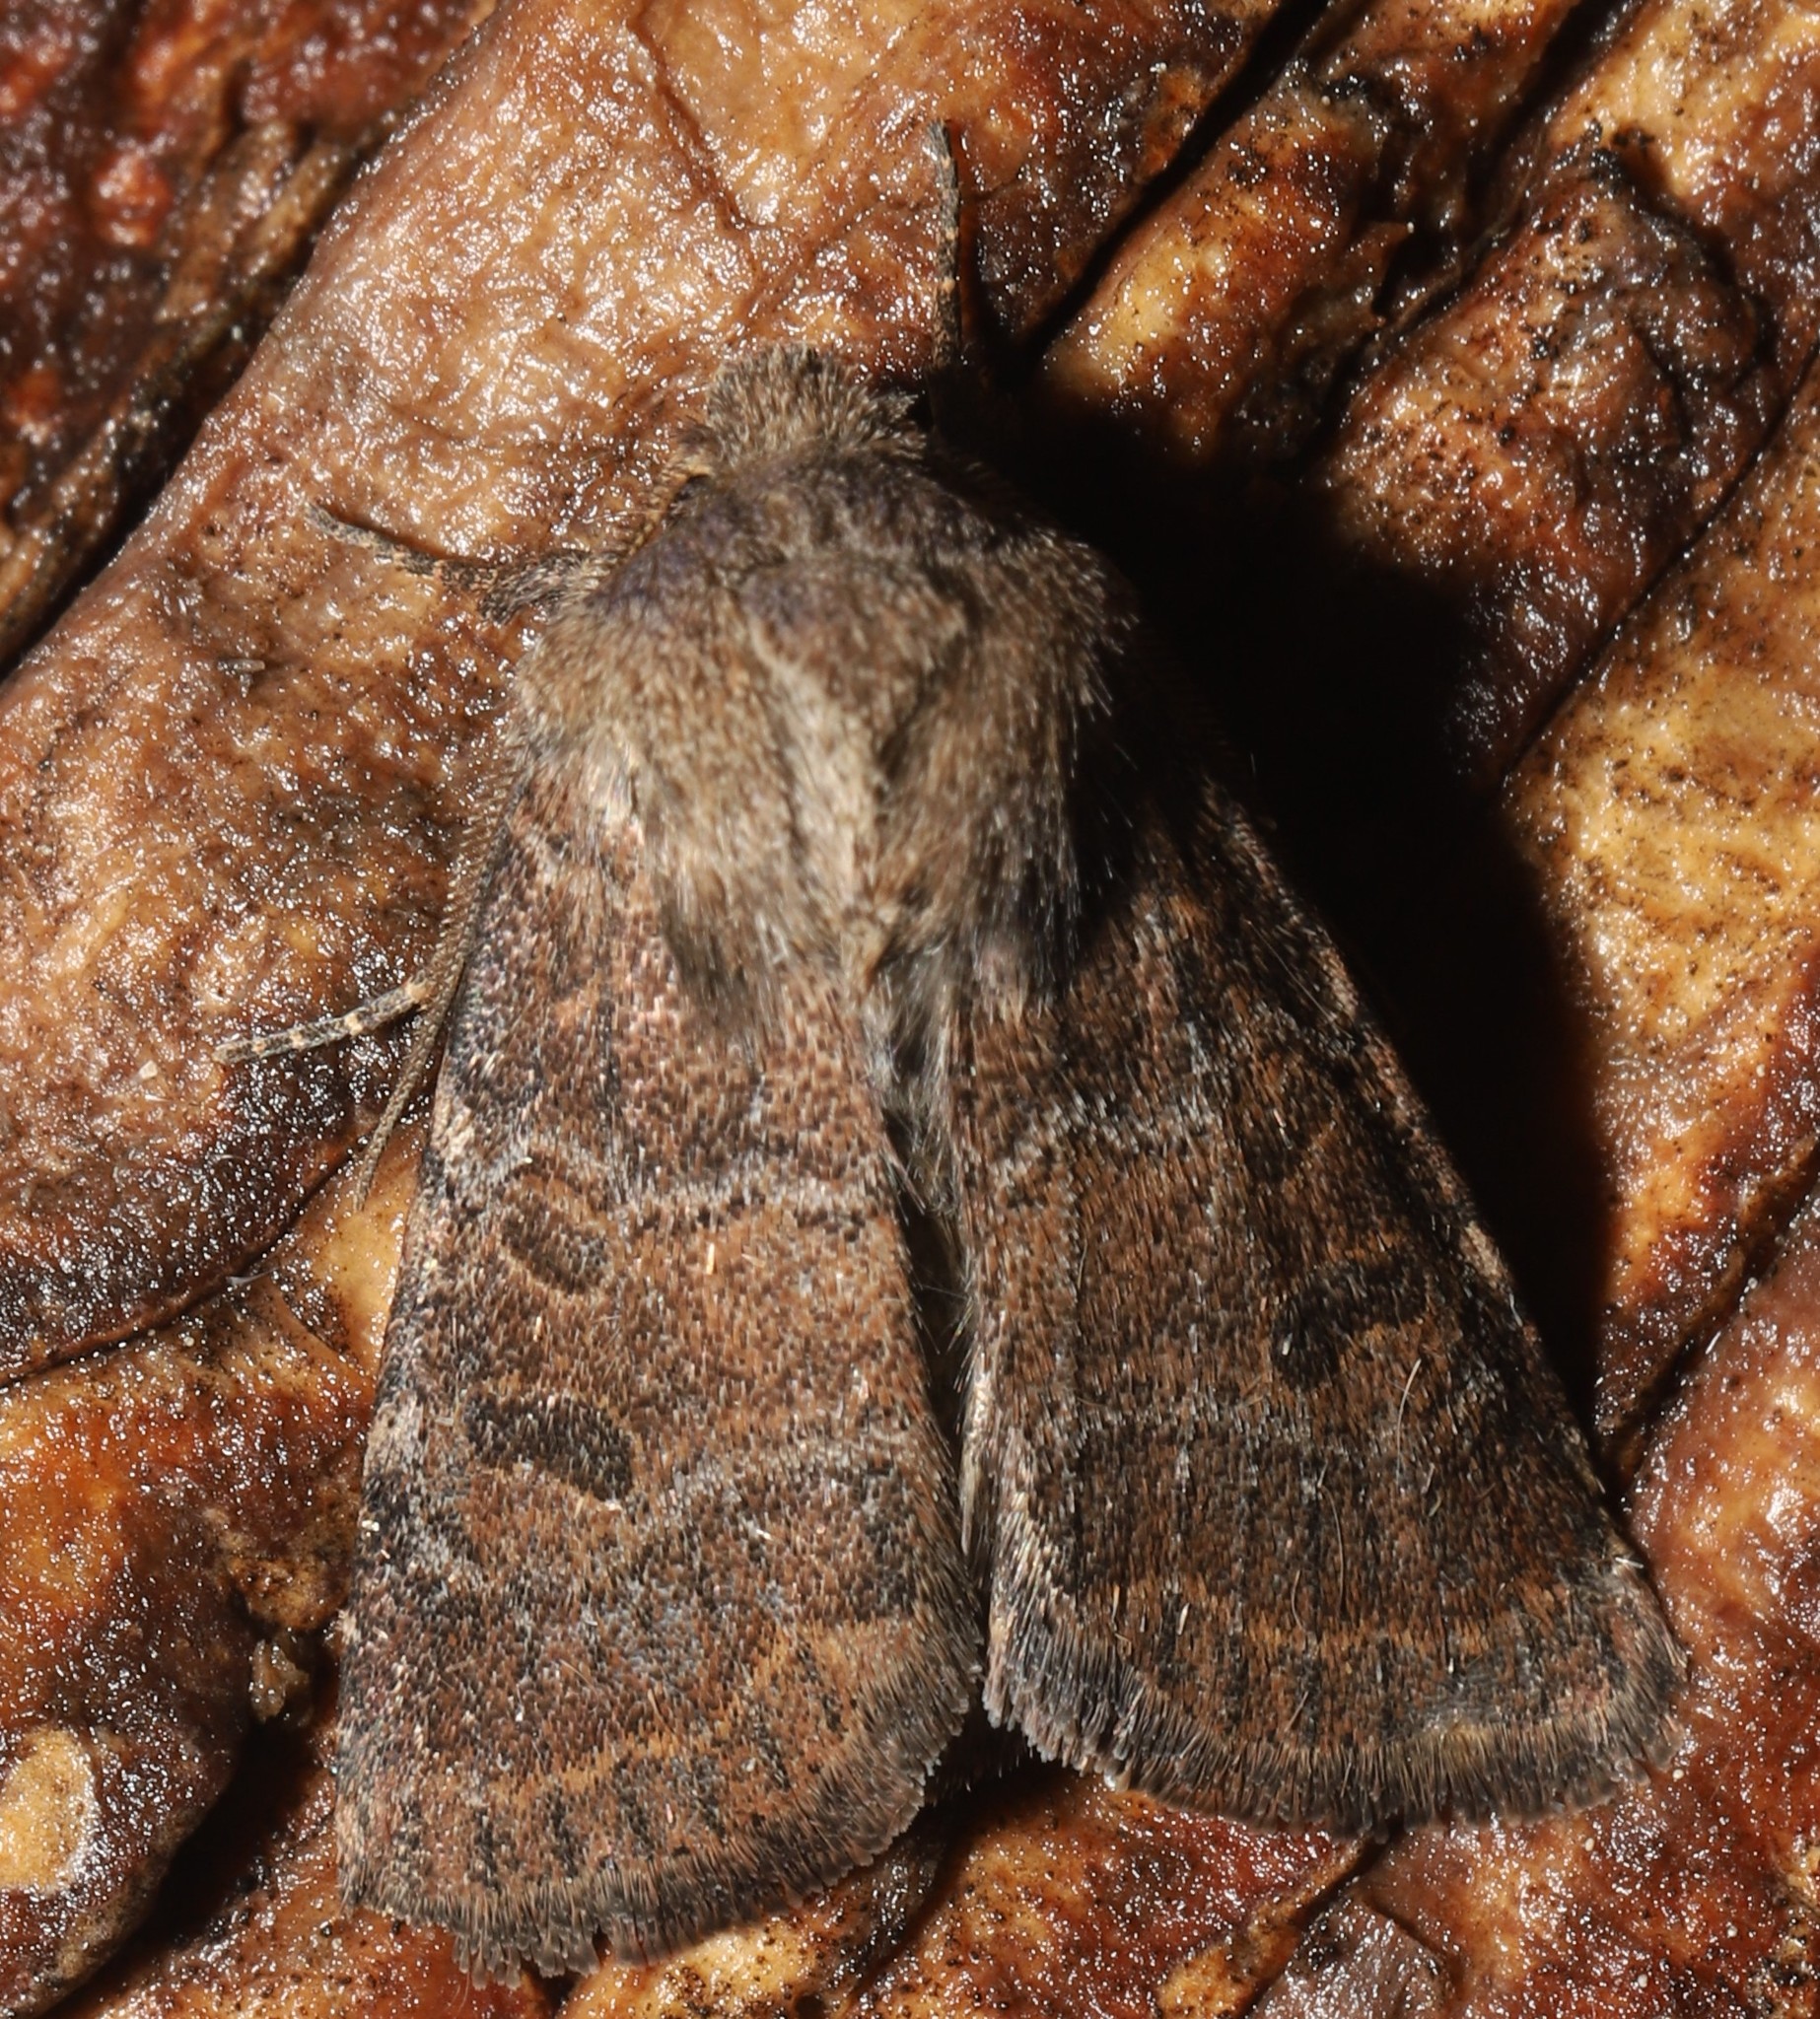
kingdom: Animalia
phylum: Arthropoda
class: Insecta
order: Lepidoptera
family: Noctuidae
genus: Trichopolia
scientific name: Trichopolia
